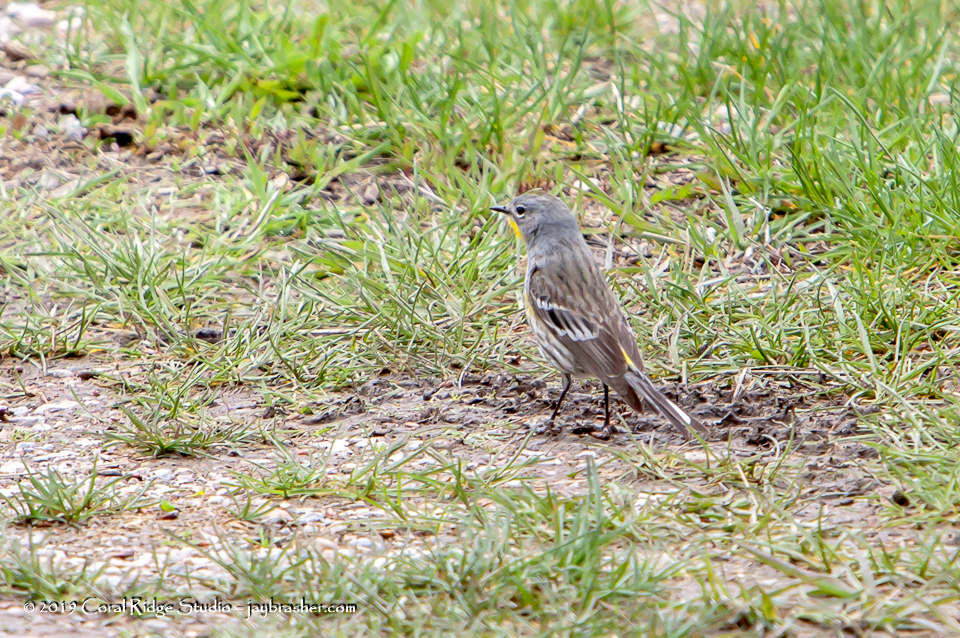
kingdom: Animalia
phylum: Chordata
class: Aves
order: Passeriformes
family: Parulidae
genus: Setophaga
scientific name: Setophaga auduboni
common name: Audubon's warbler
